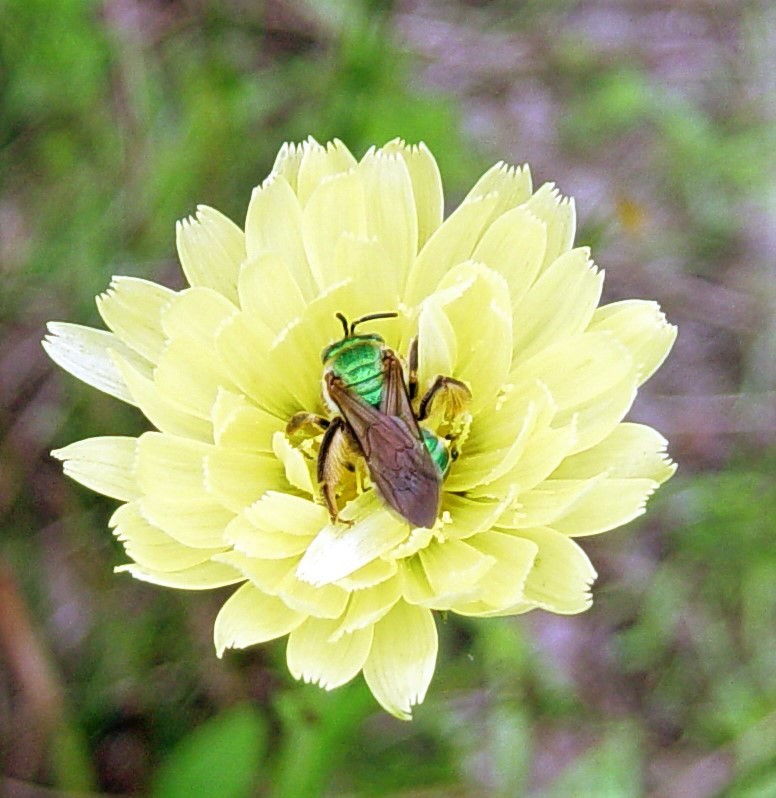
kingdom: Animalia
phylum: Arthropoda
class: Insecta
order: Hymenoptera
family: Halictidae
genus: Agapostemon
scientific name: Agapostemon splendens
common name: Brown-winged striped sweat bee
